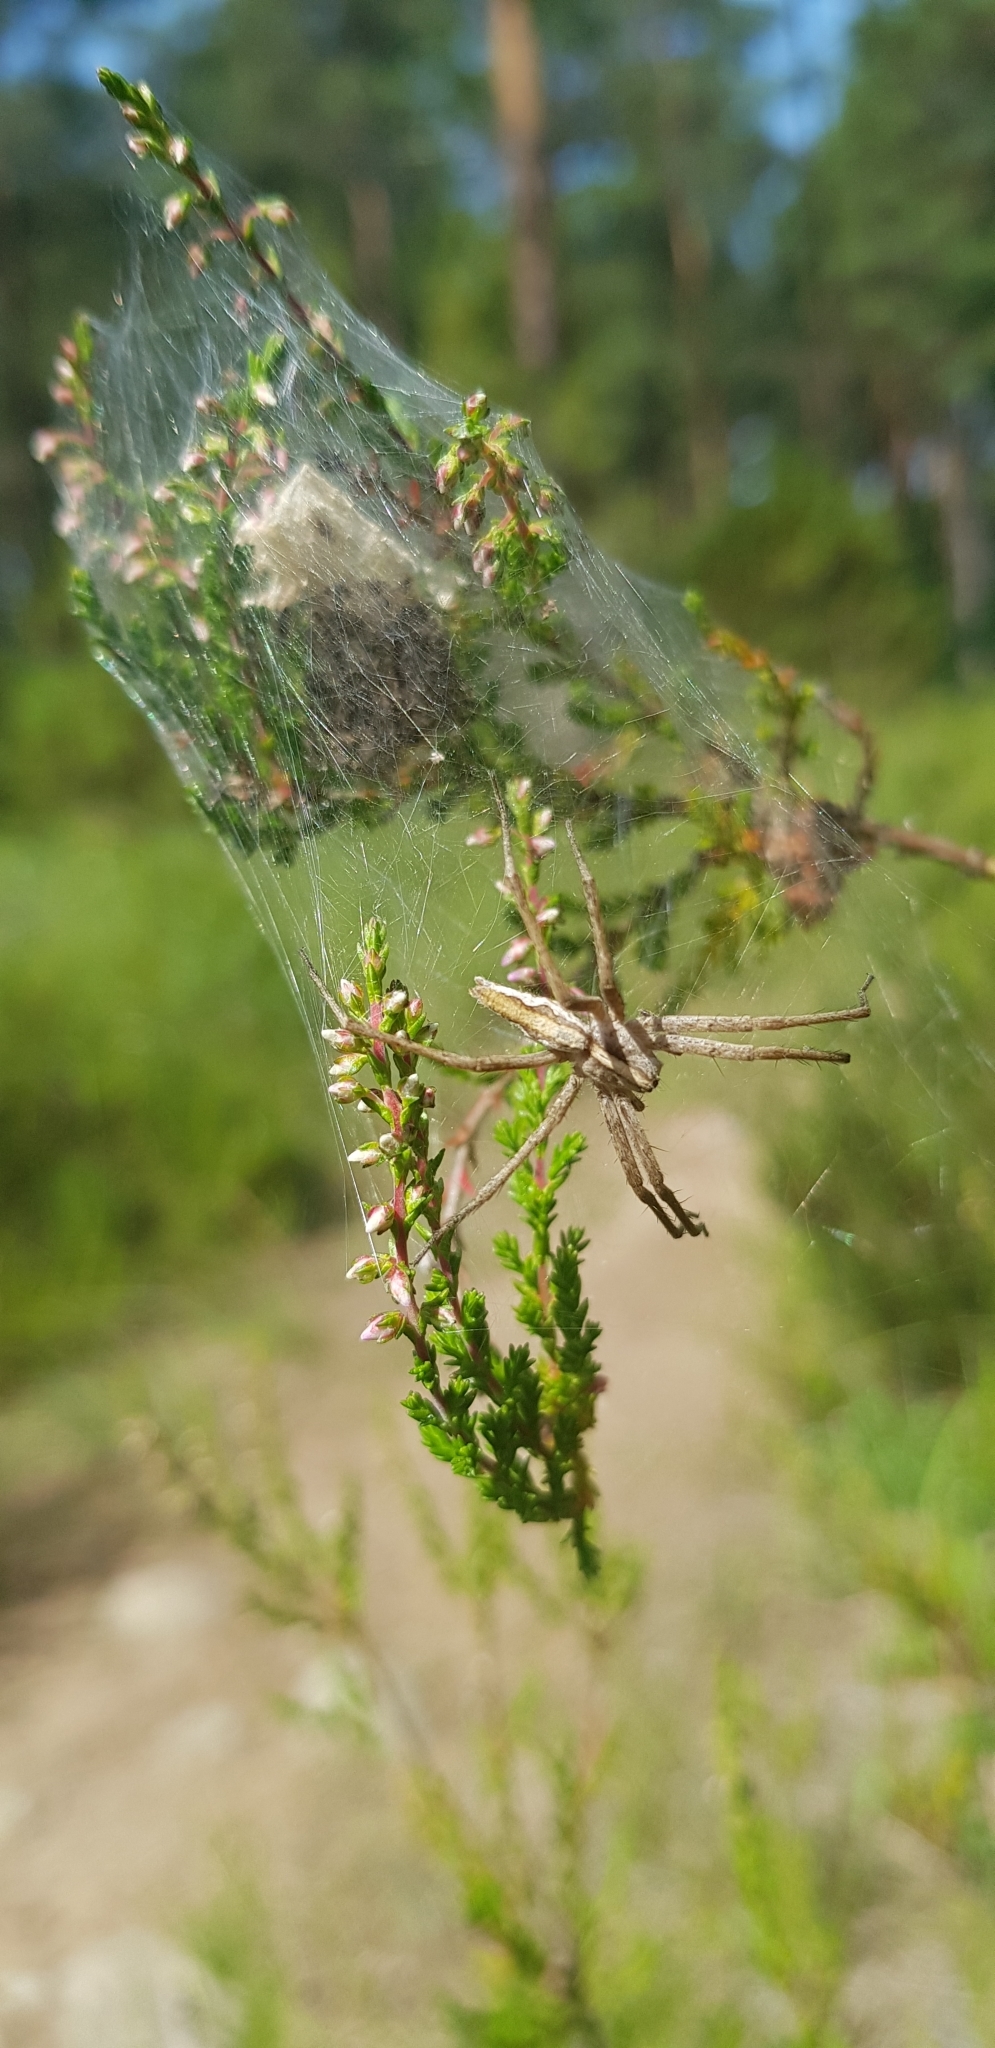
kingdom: Animalia
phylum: Arthropoda
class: Arachnida
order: Araneae
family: Pisauridae
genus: Pisaura
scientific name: Pisaura mirabilis
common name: Tent spider
